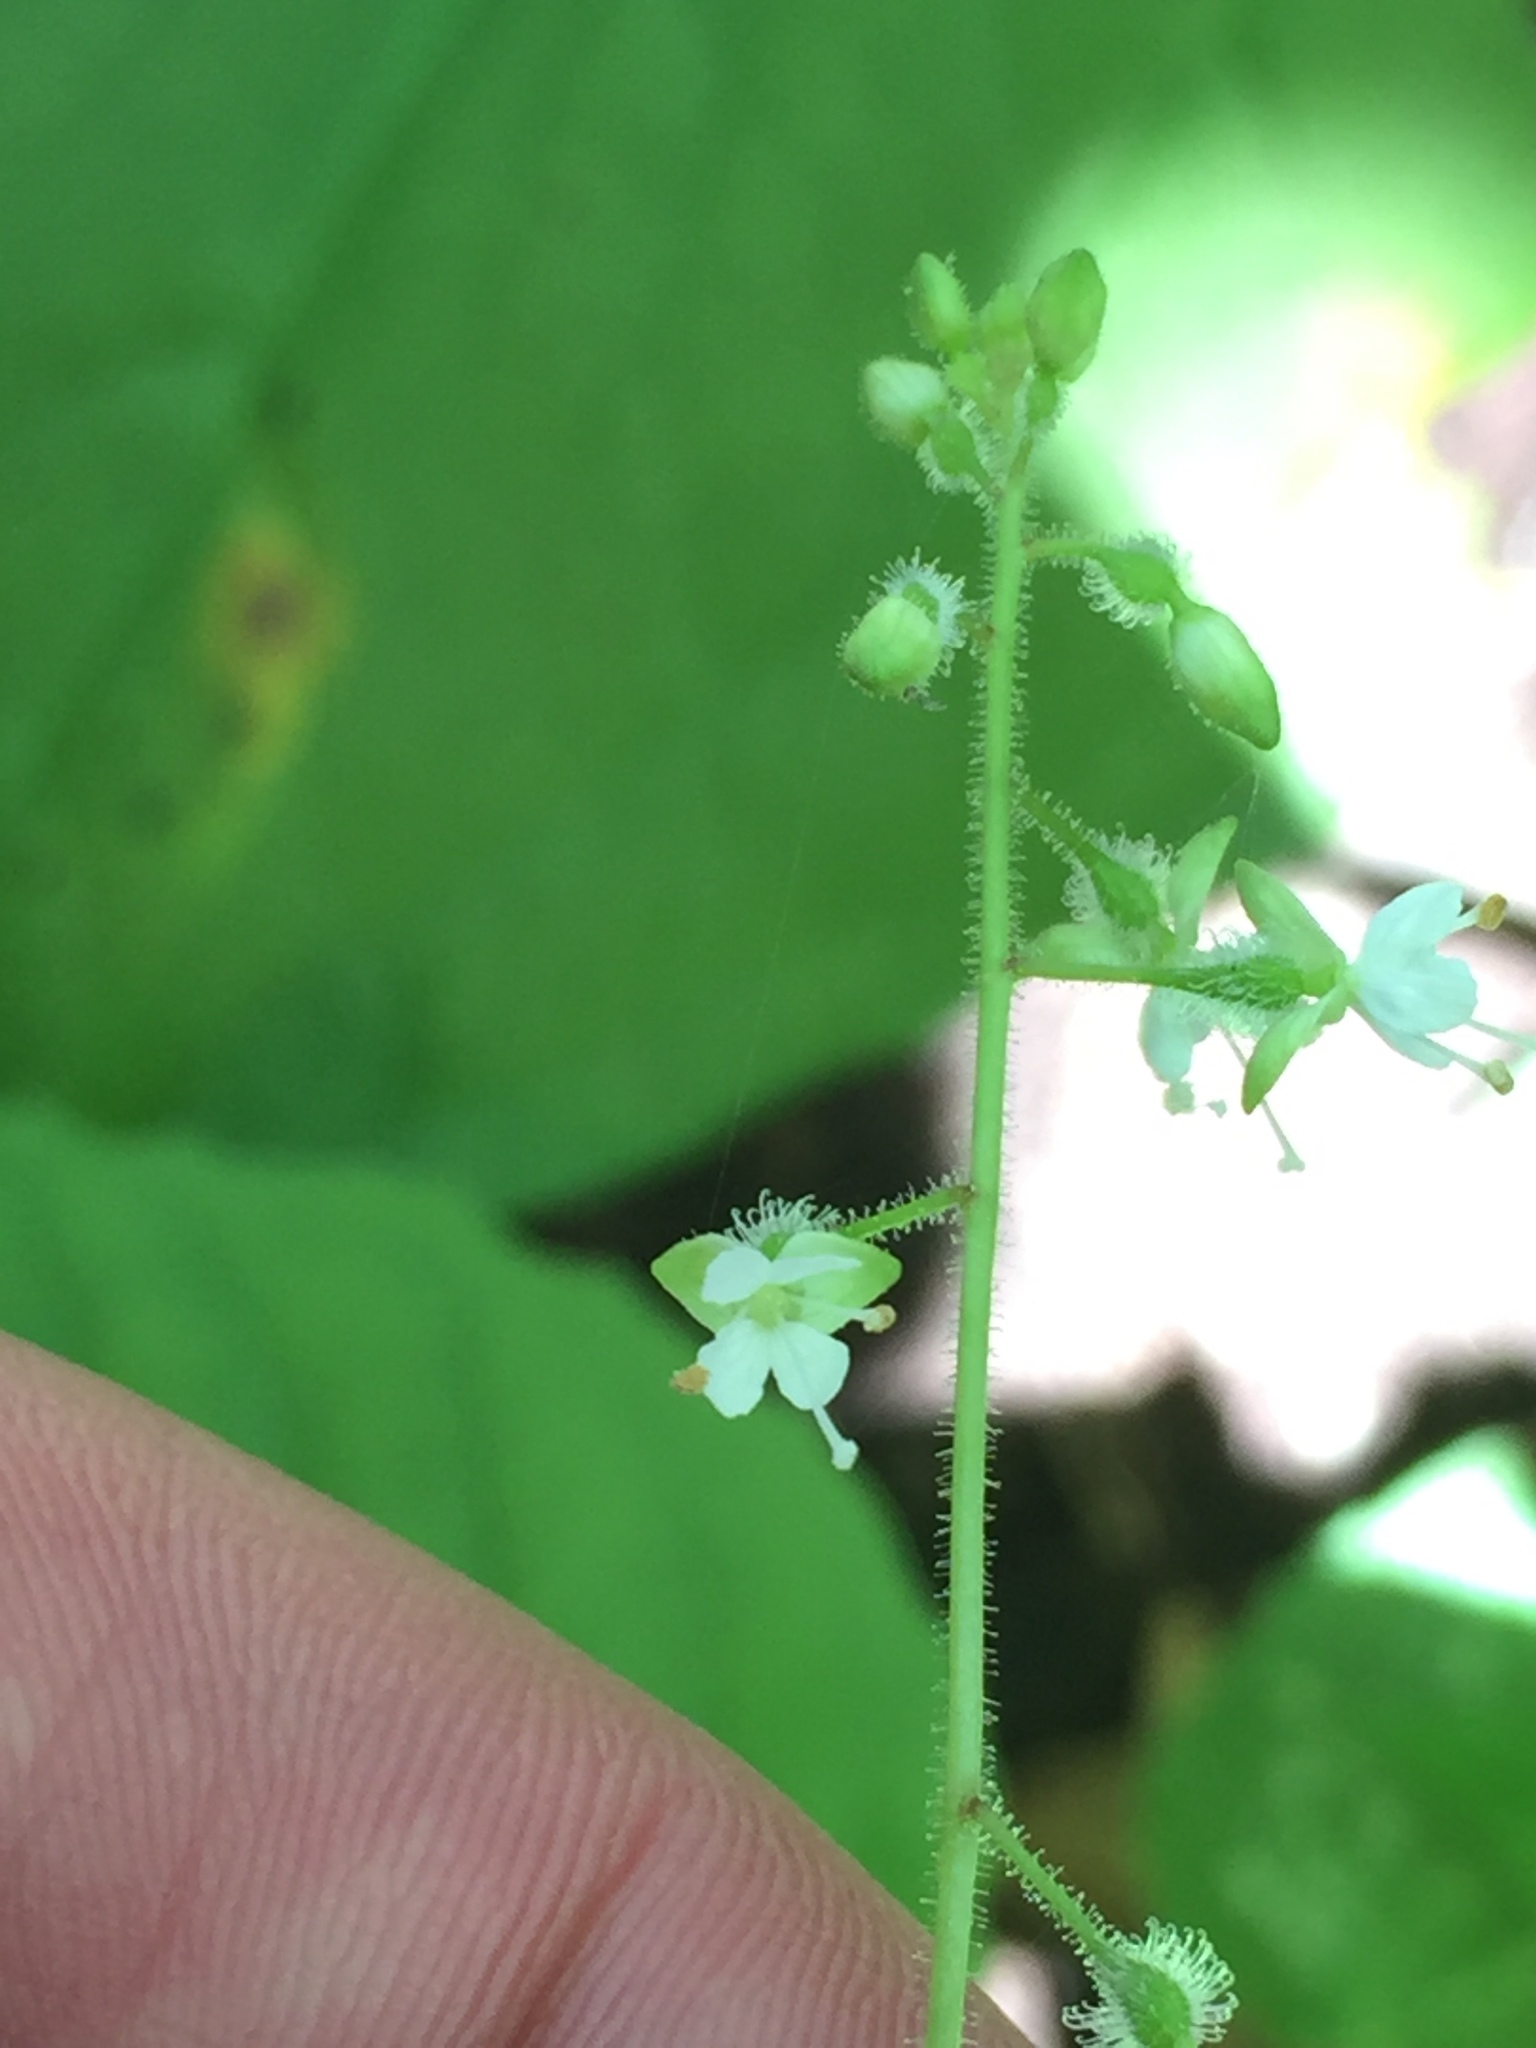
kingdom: Plantae
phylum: Tracheophyta
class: Magnoliopsida
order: Myrtales
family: Onagraceae
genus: Circaea
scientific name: Circaea canadensis
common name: Broad-leaved enchanter's nightshade
